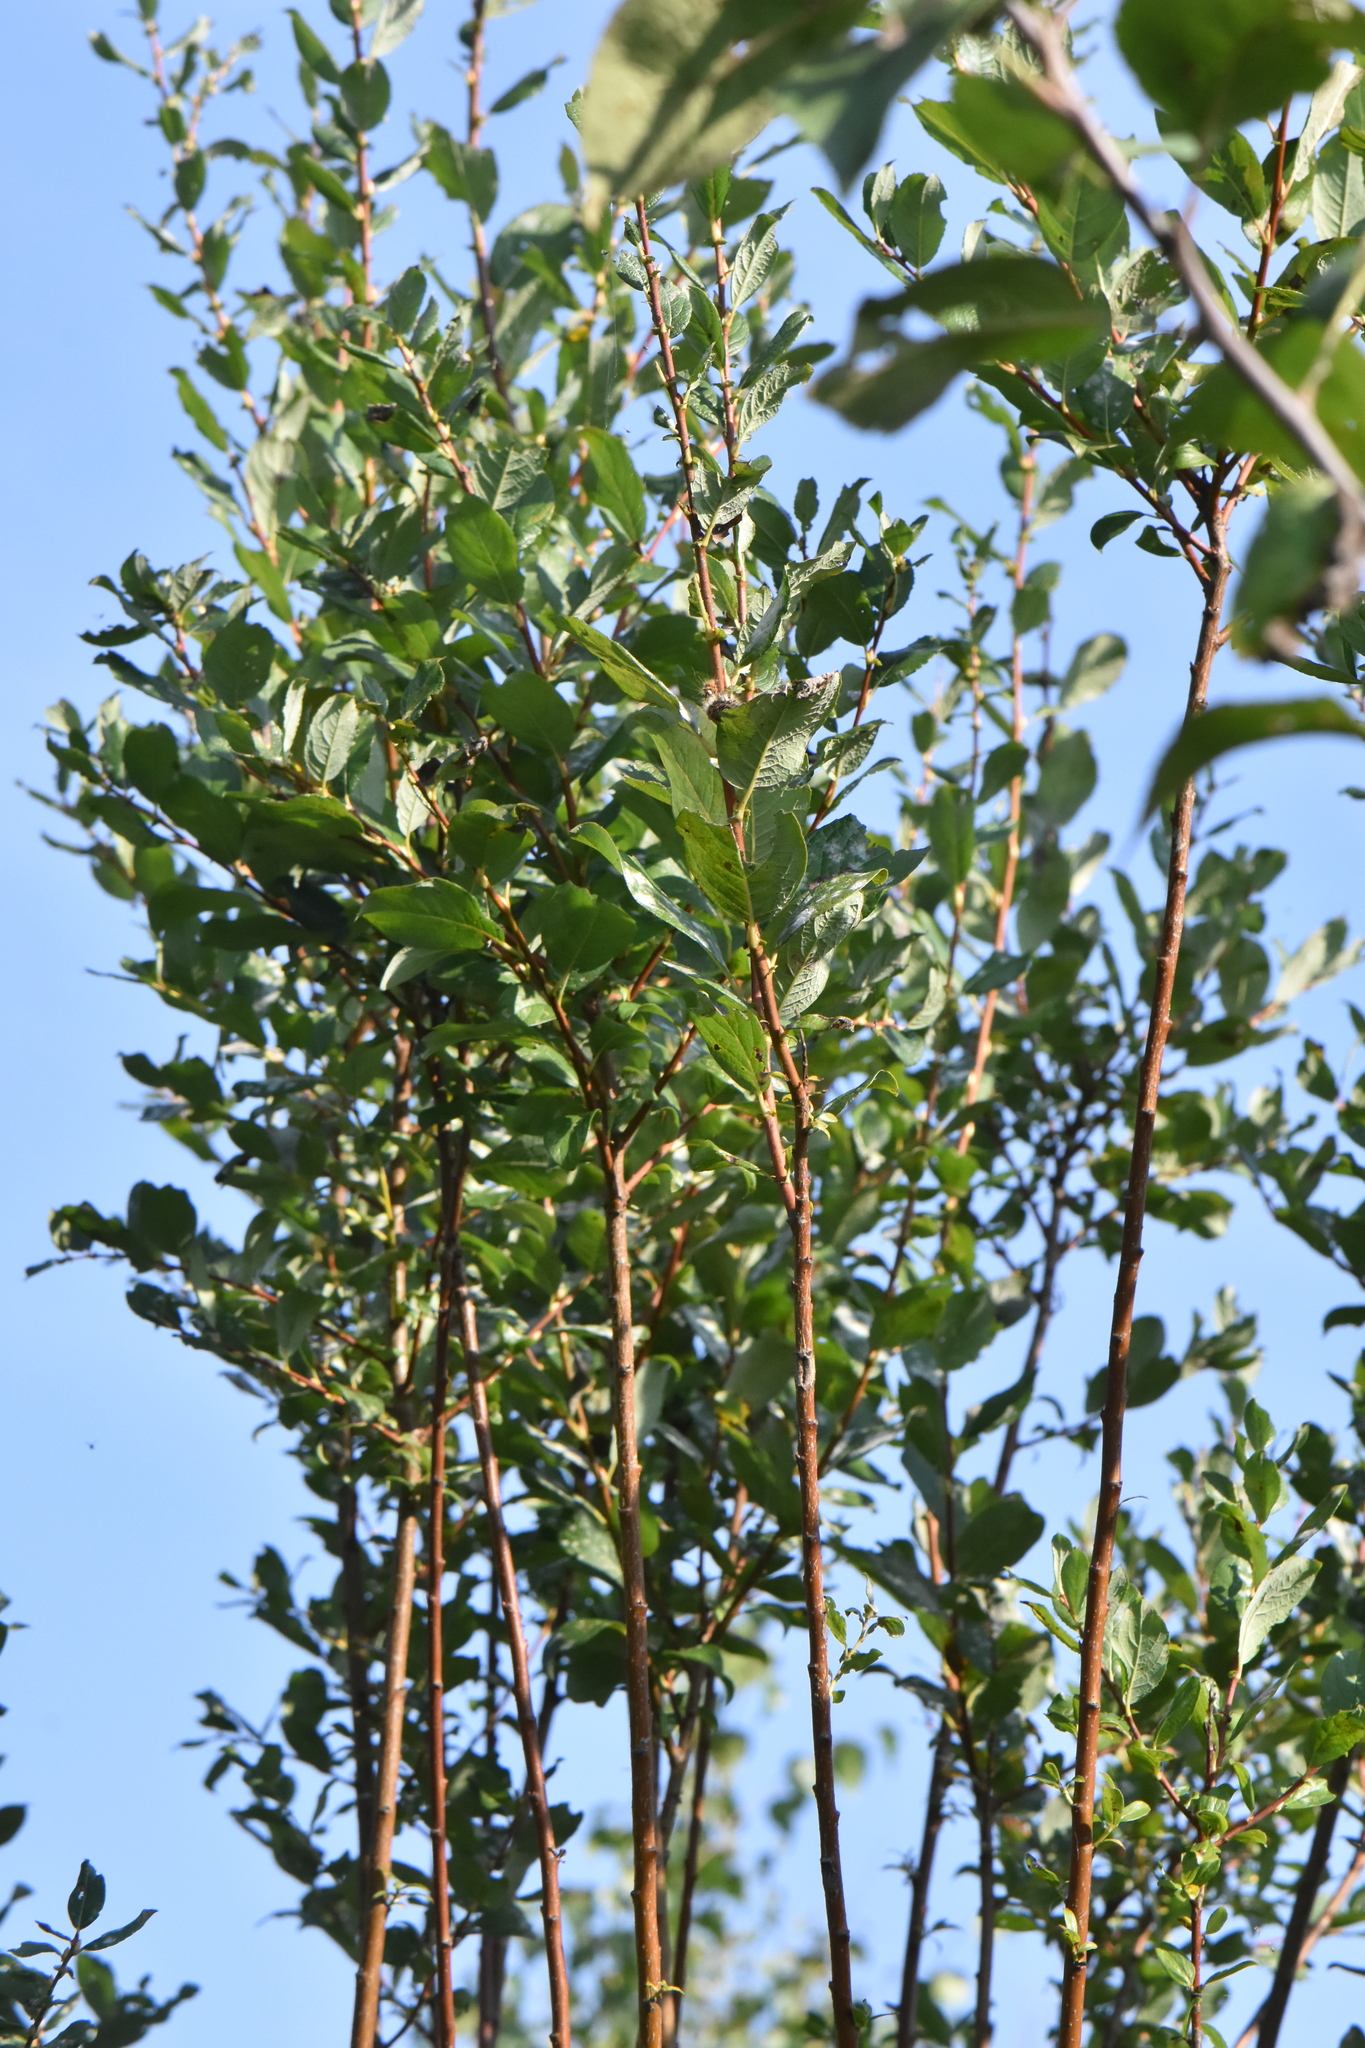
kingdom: Plantae
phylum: Tracheophyta
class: Magnoliopsida
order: Malpighiales
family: Salicaceae
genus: Salix
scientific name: Salix starkeana
